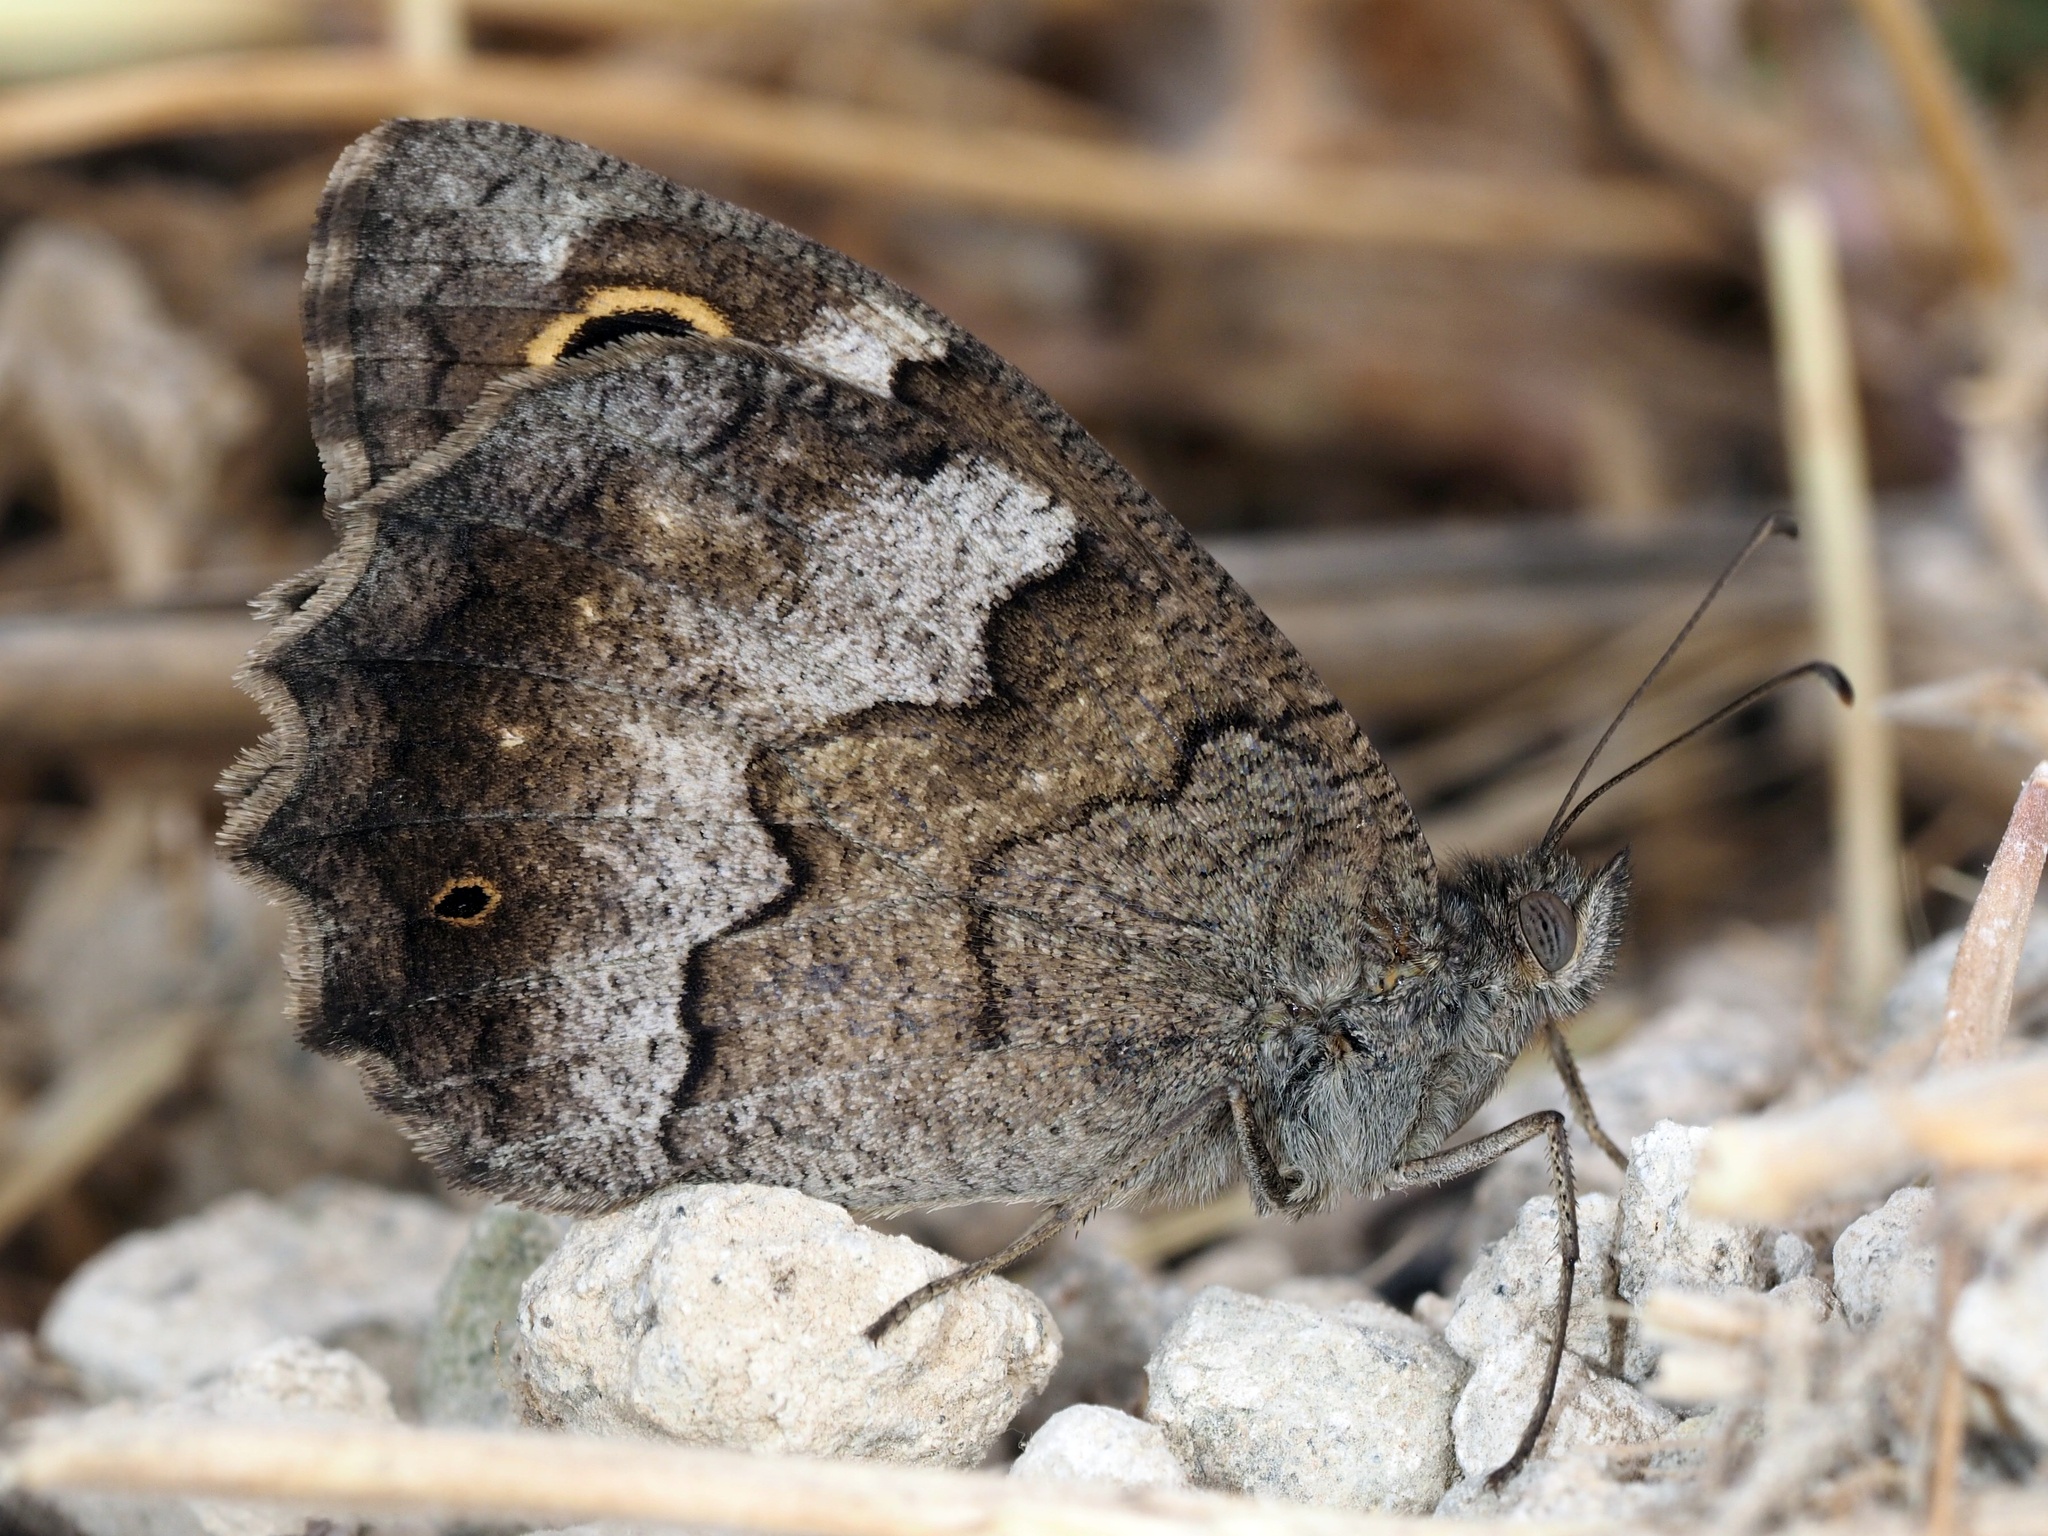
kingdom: Animalia
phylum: Arthropoda
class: Insecta
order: Lepidoptera
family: Nymphalidae
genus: Hipparchia
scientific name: Hipparchia statilinus
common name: Tree grayling
